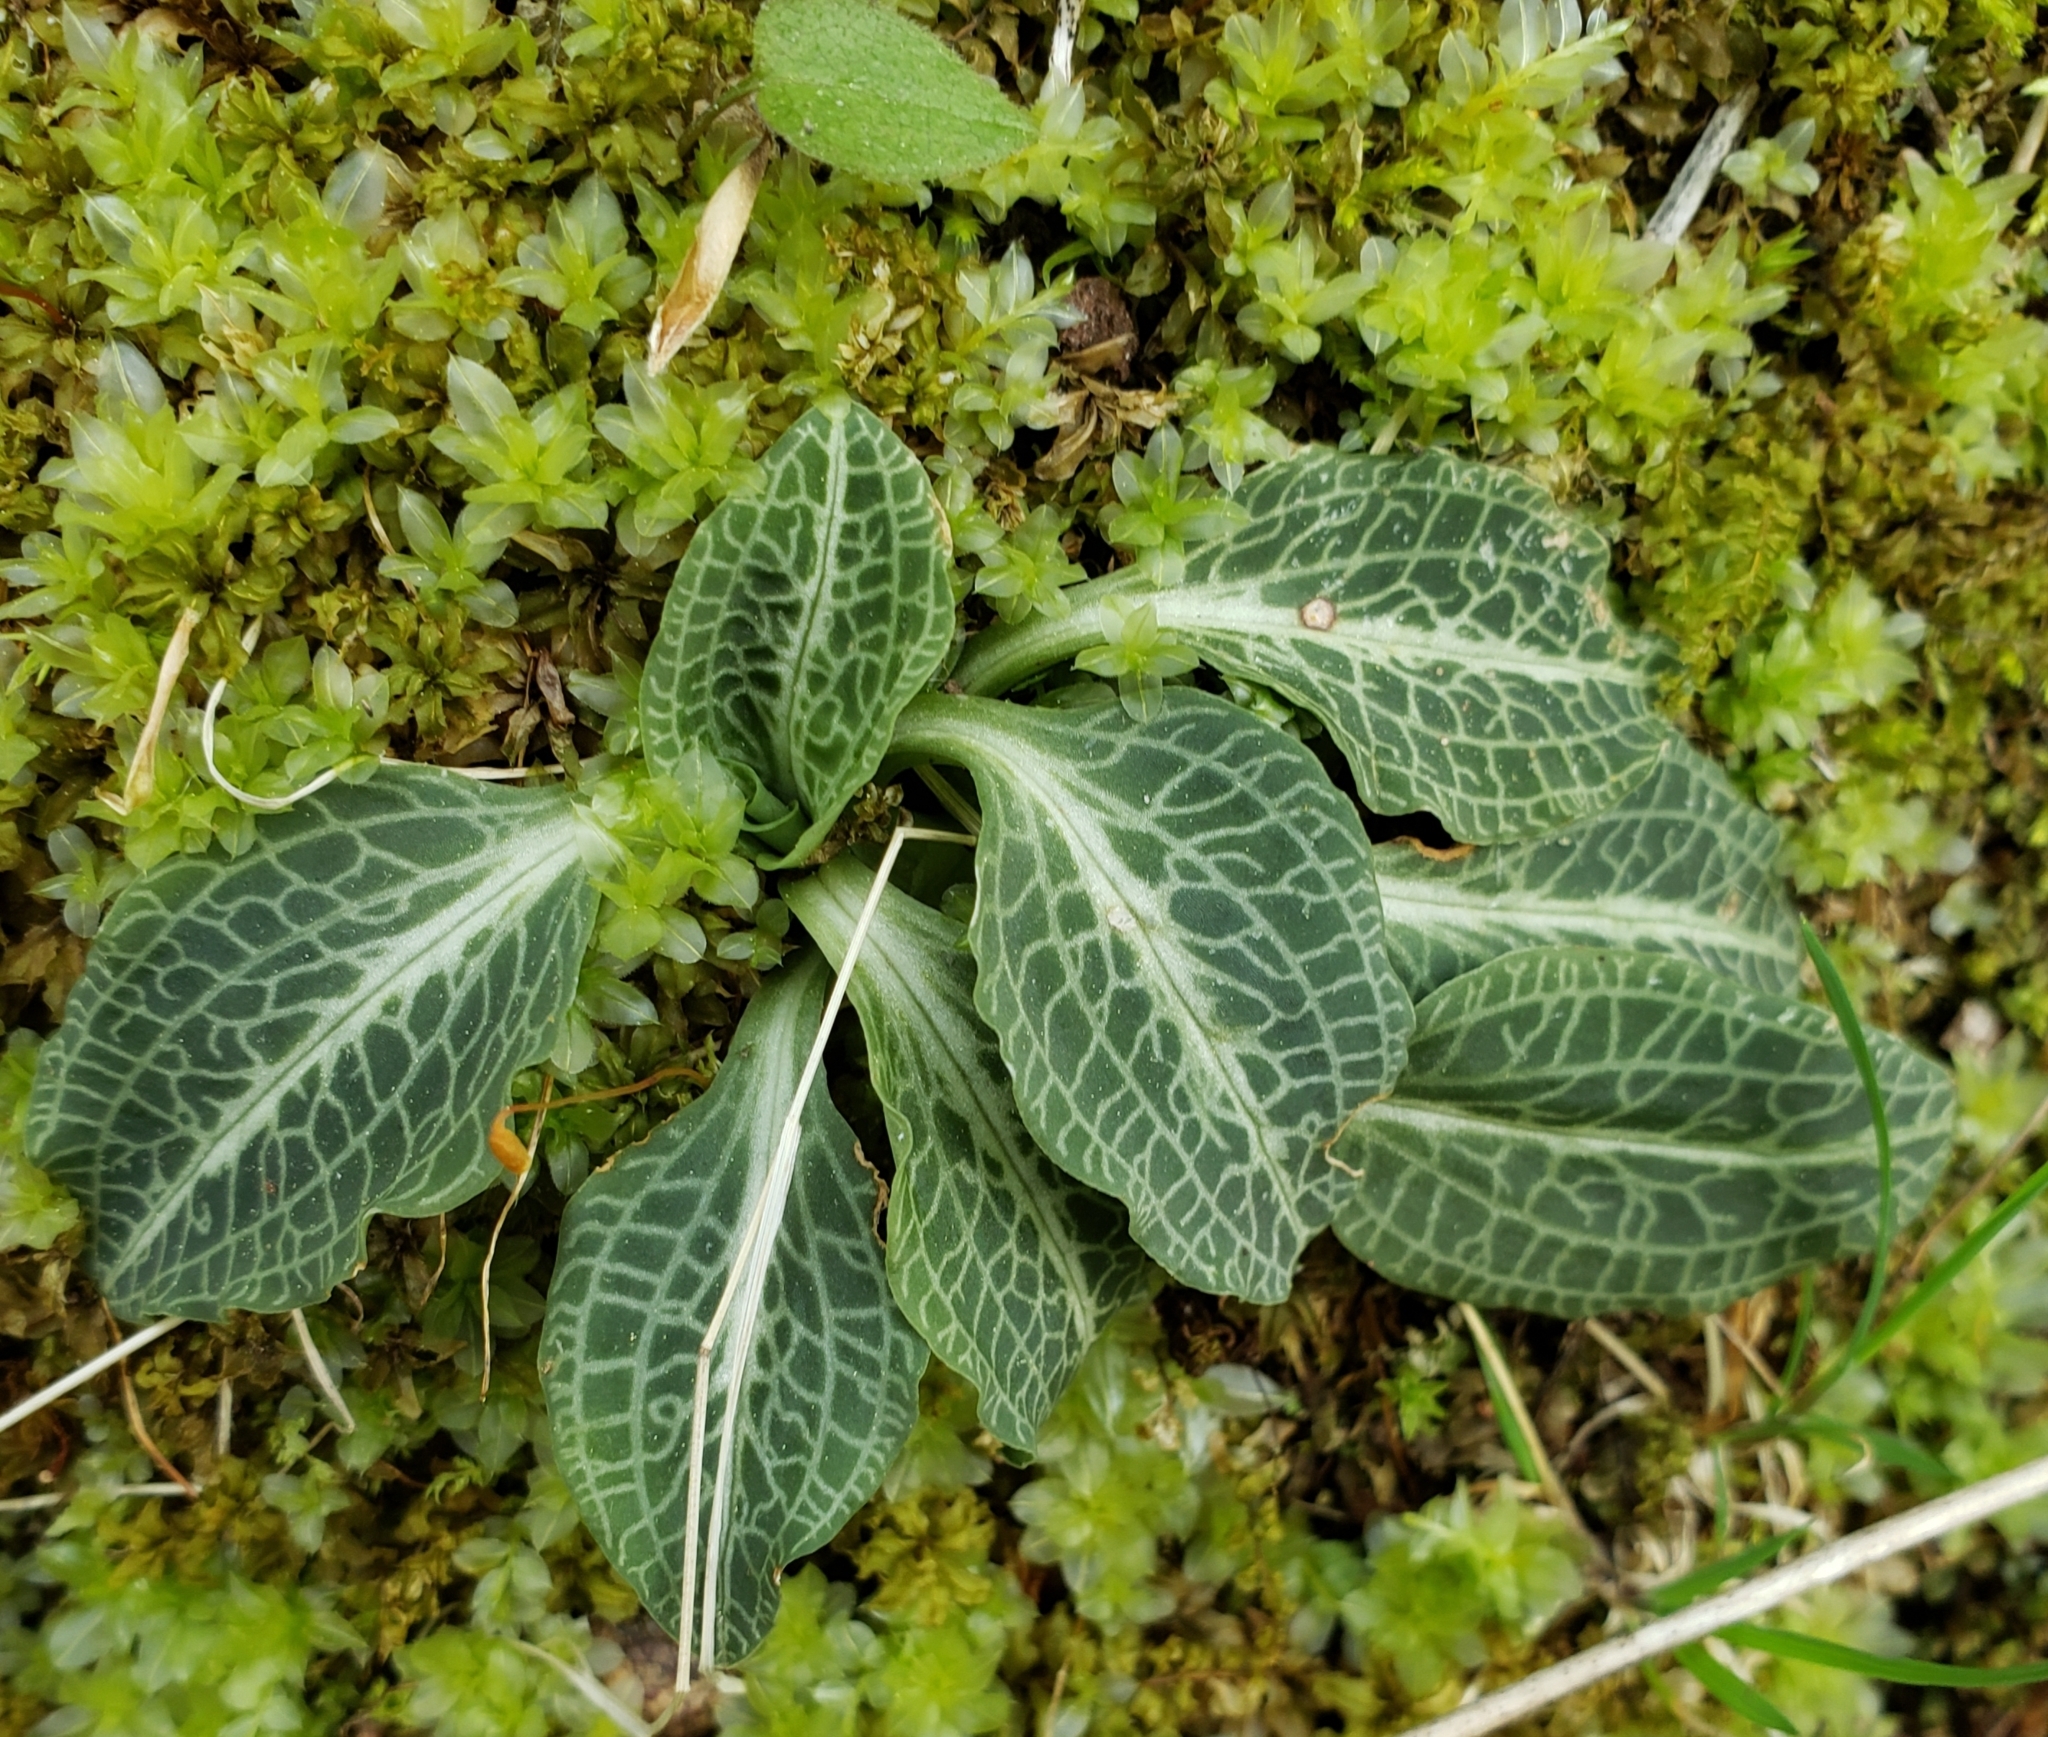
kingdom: Plantae
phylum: Tracheophyta
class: Liliopsida
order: Asparagales
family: Orchidaceae
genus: Goodyera
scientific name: Goodyera pubescens
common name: Downy rattlesnake-plantain
